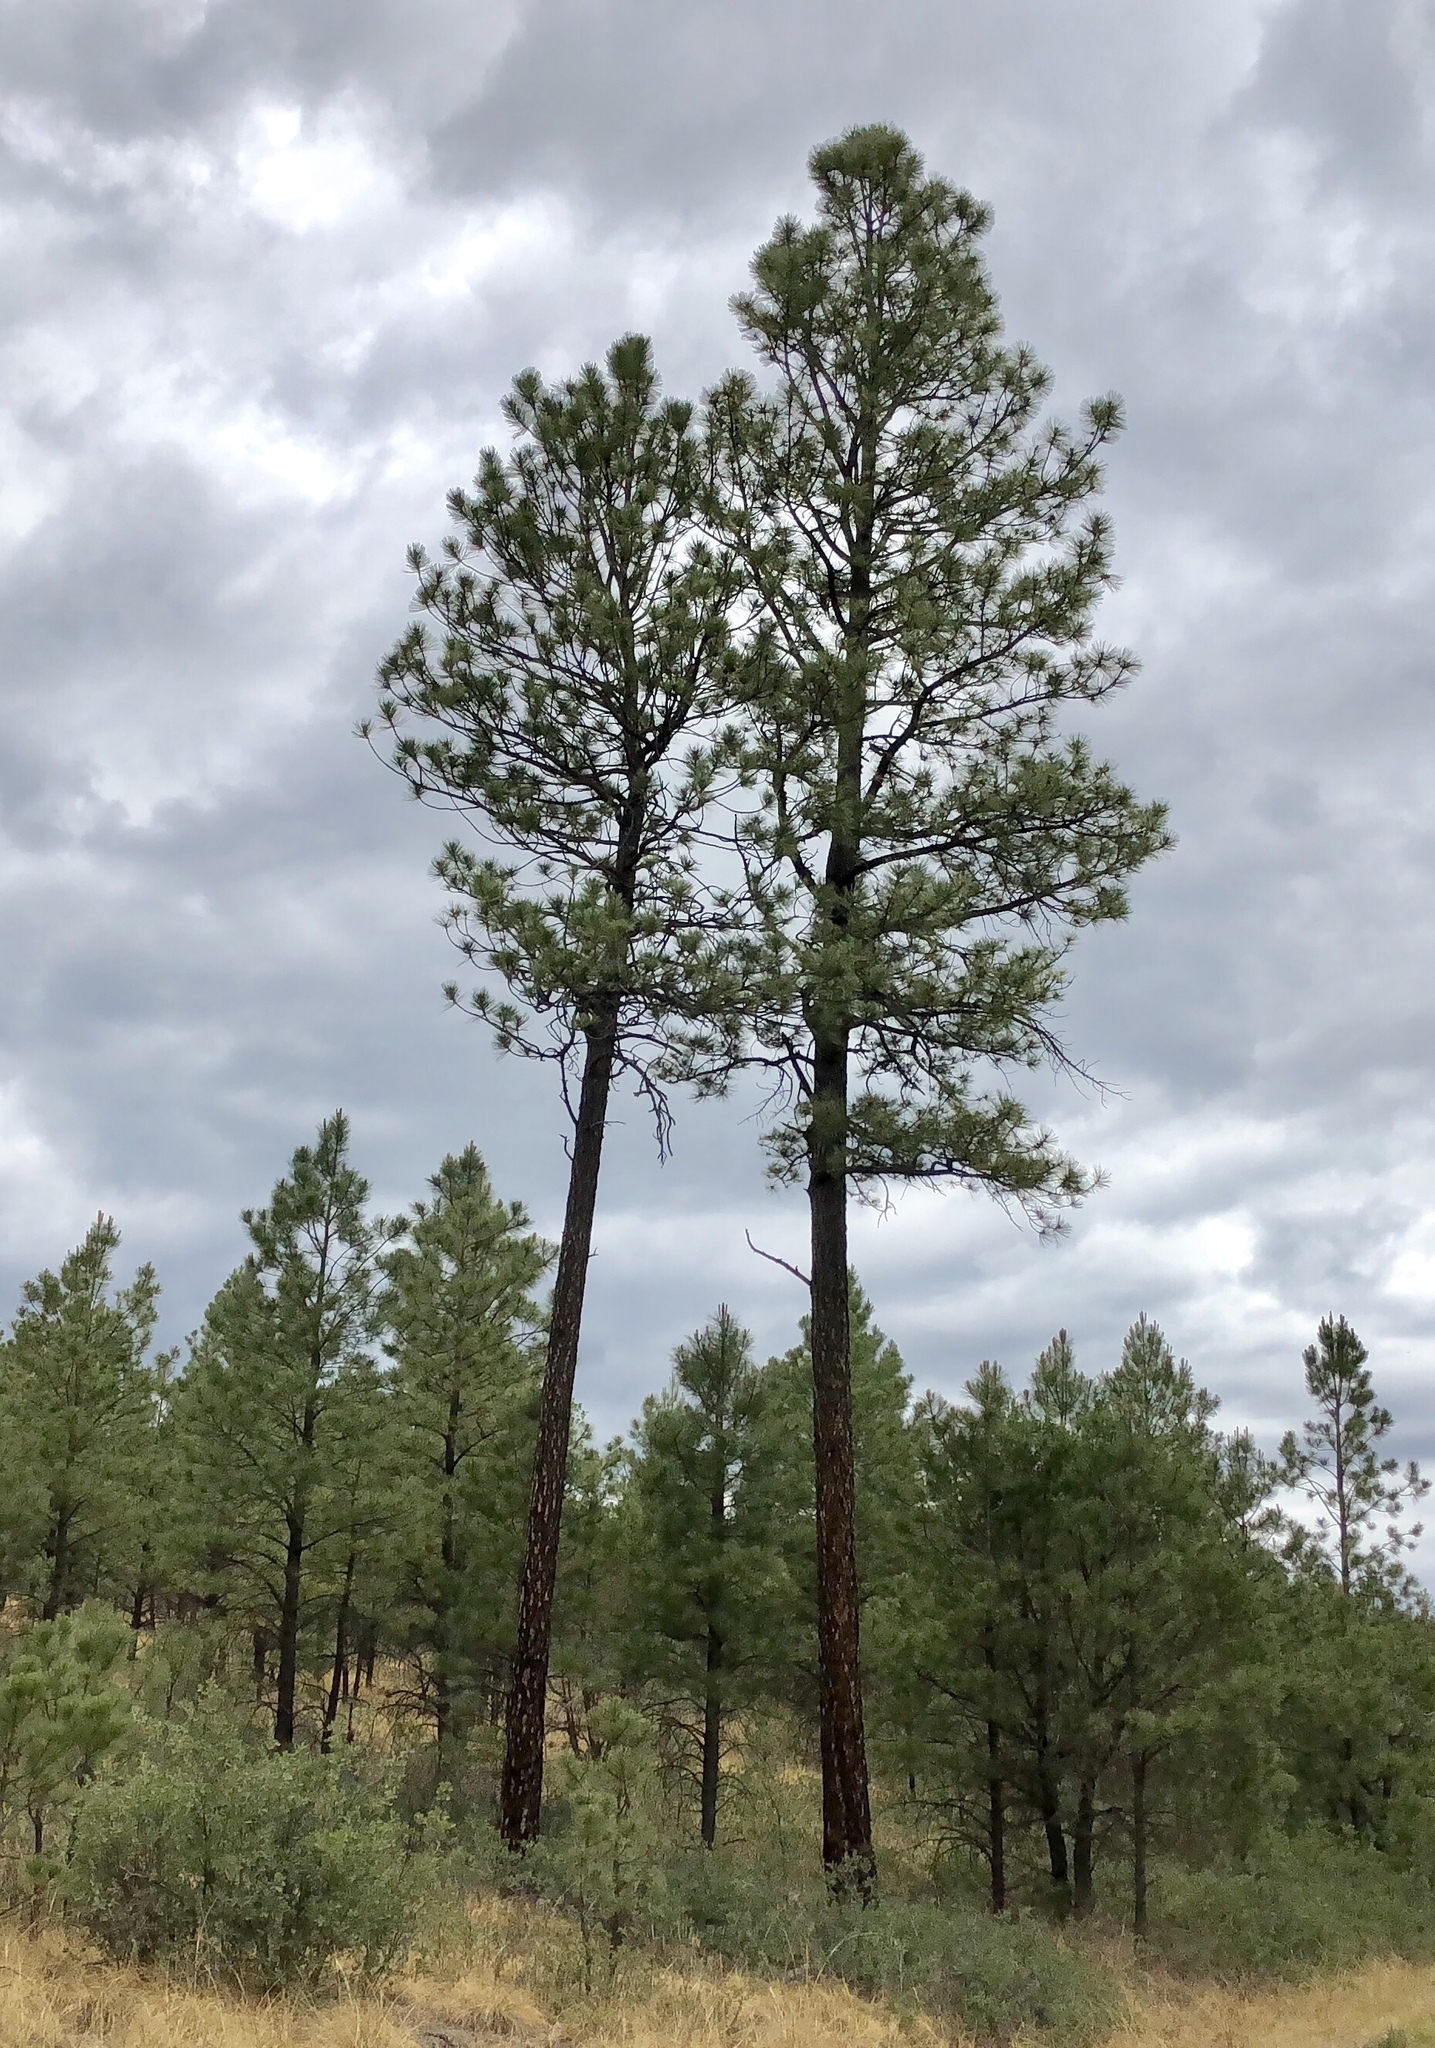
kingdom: Plantae
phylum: Tracheophyta
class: Pinopsida
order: Pinales
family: Pinaceae
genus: Pinus
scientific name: Pinus ponderosa
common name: Western yellow-pine
